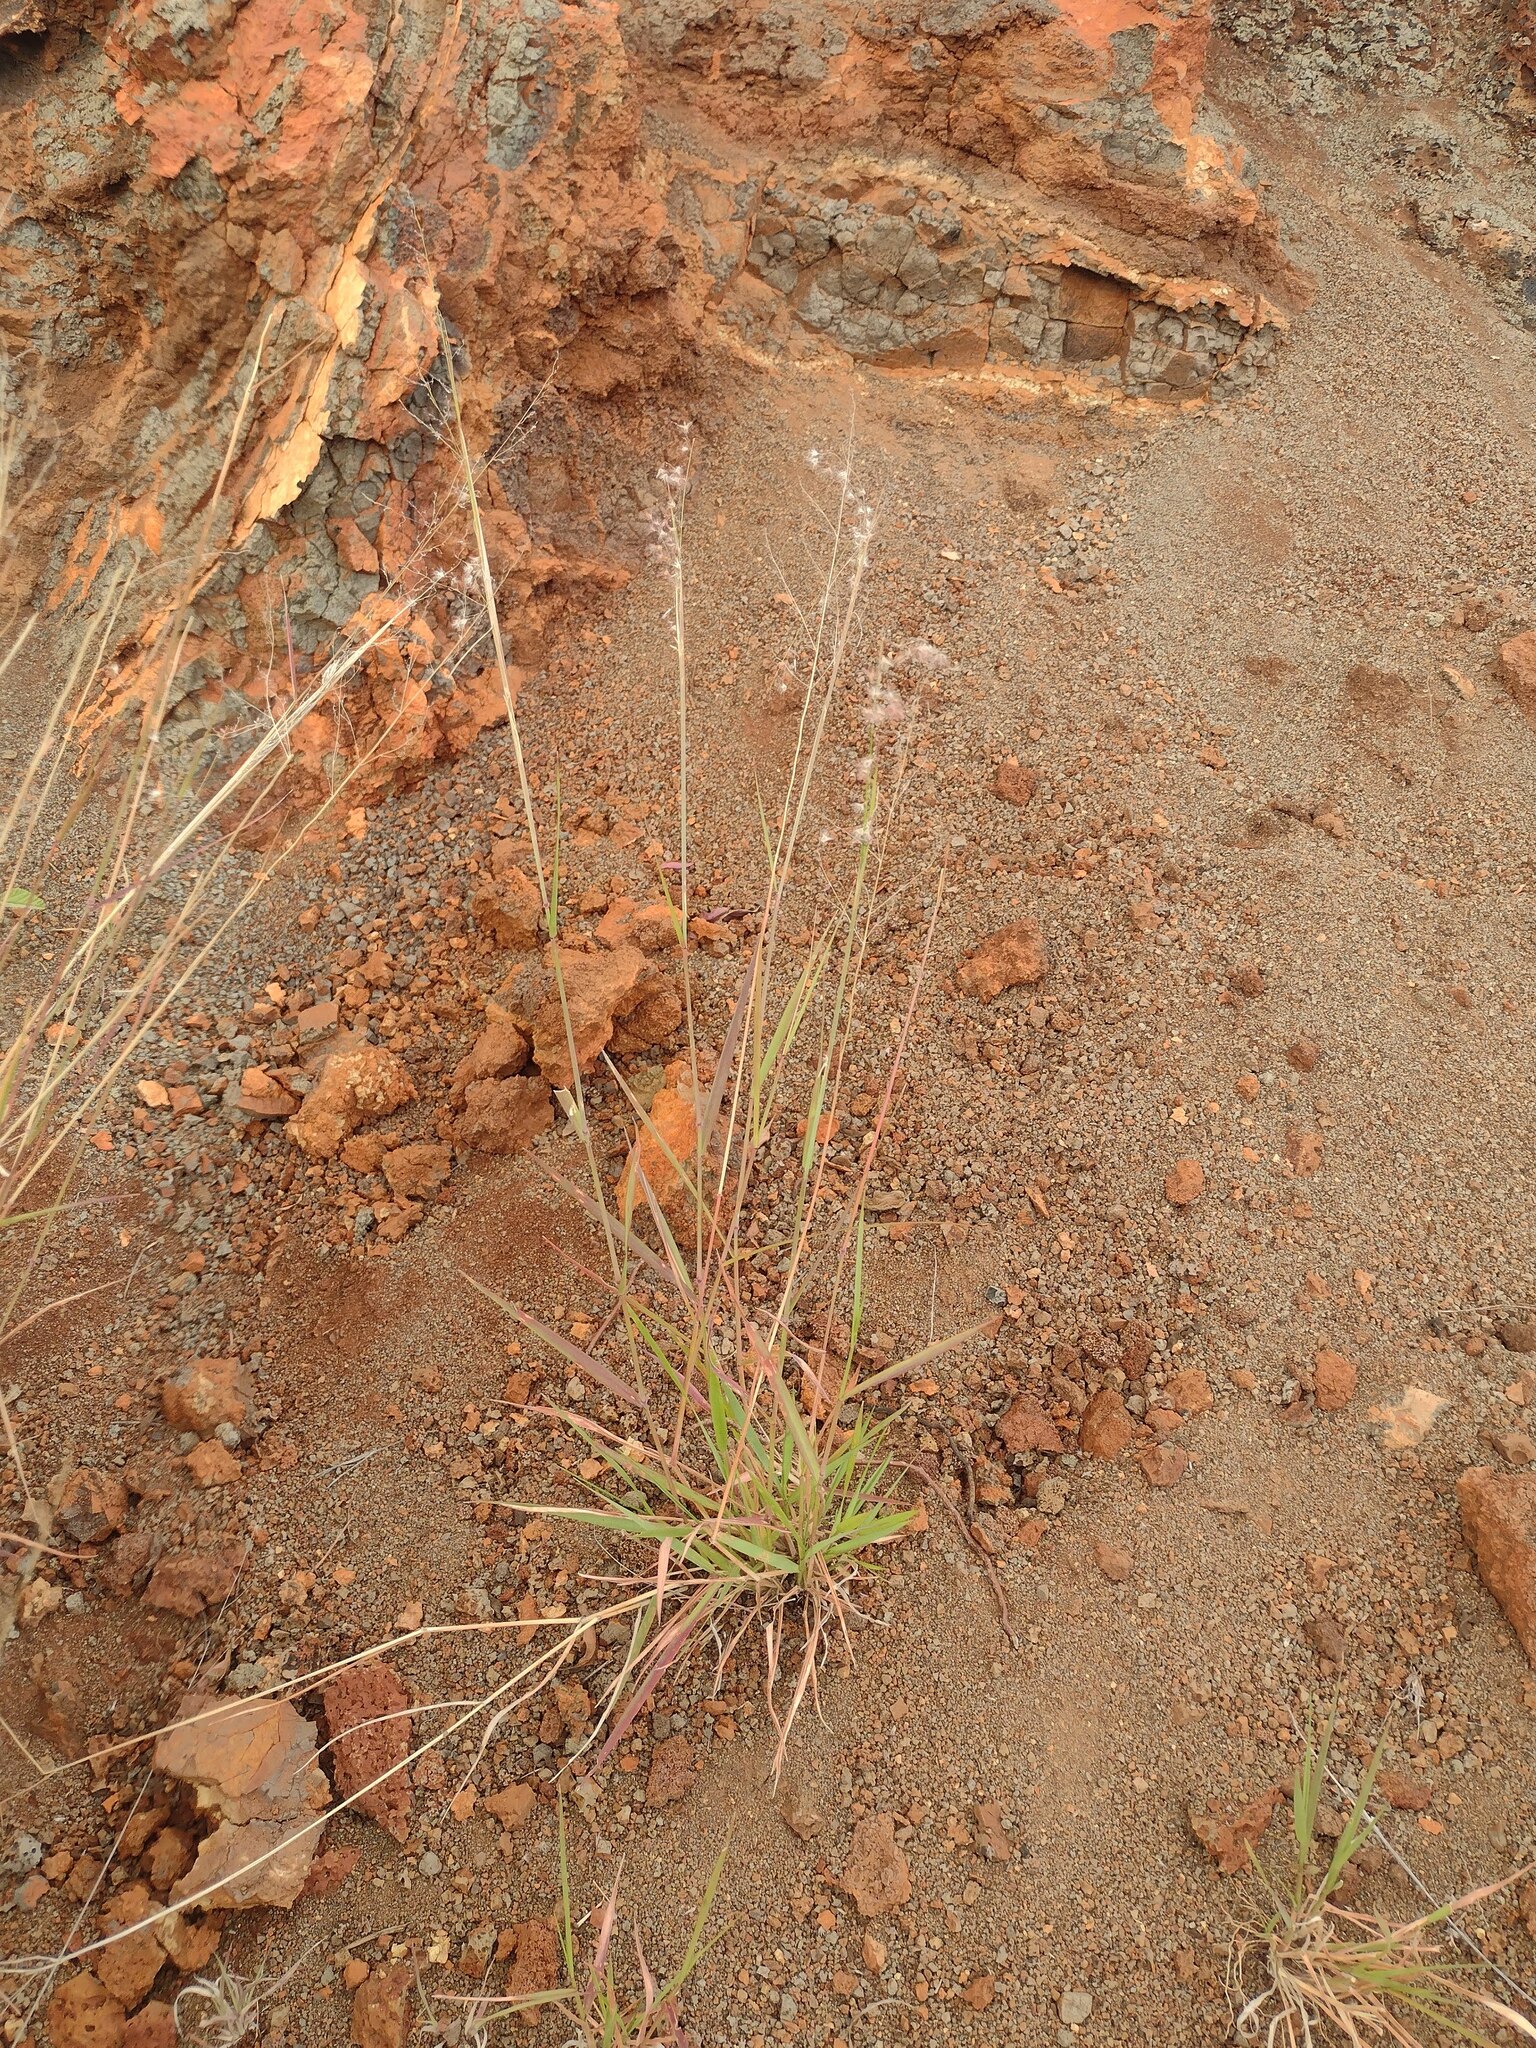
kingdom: Plantae
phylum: Tracheophyta
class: Liliopsida
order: Poales
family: Poaceae
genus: Melinis
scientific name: Melinis repens
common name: Rose natal grass
